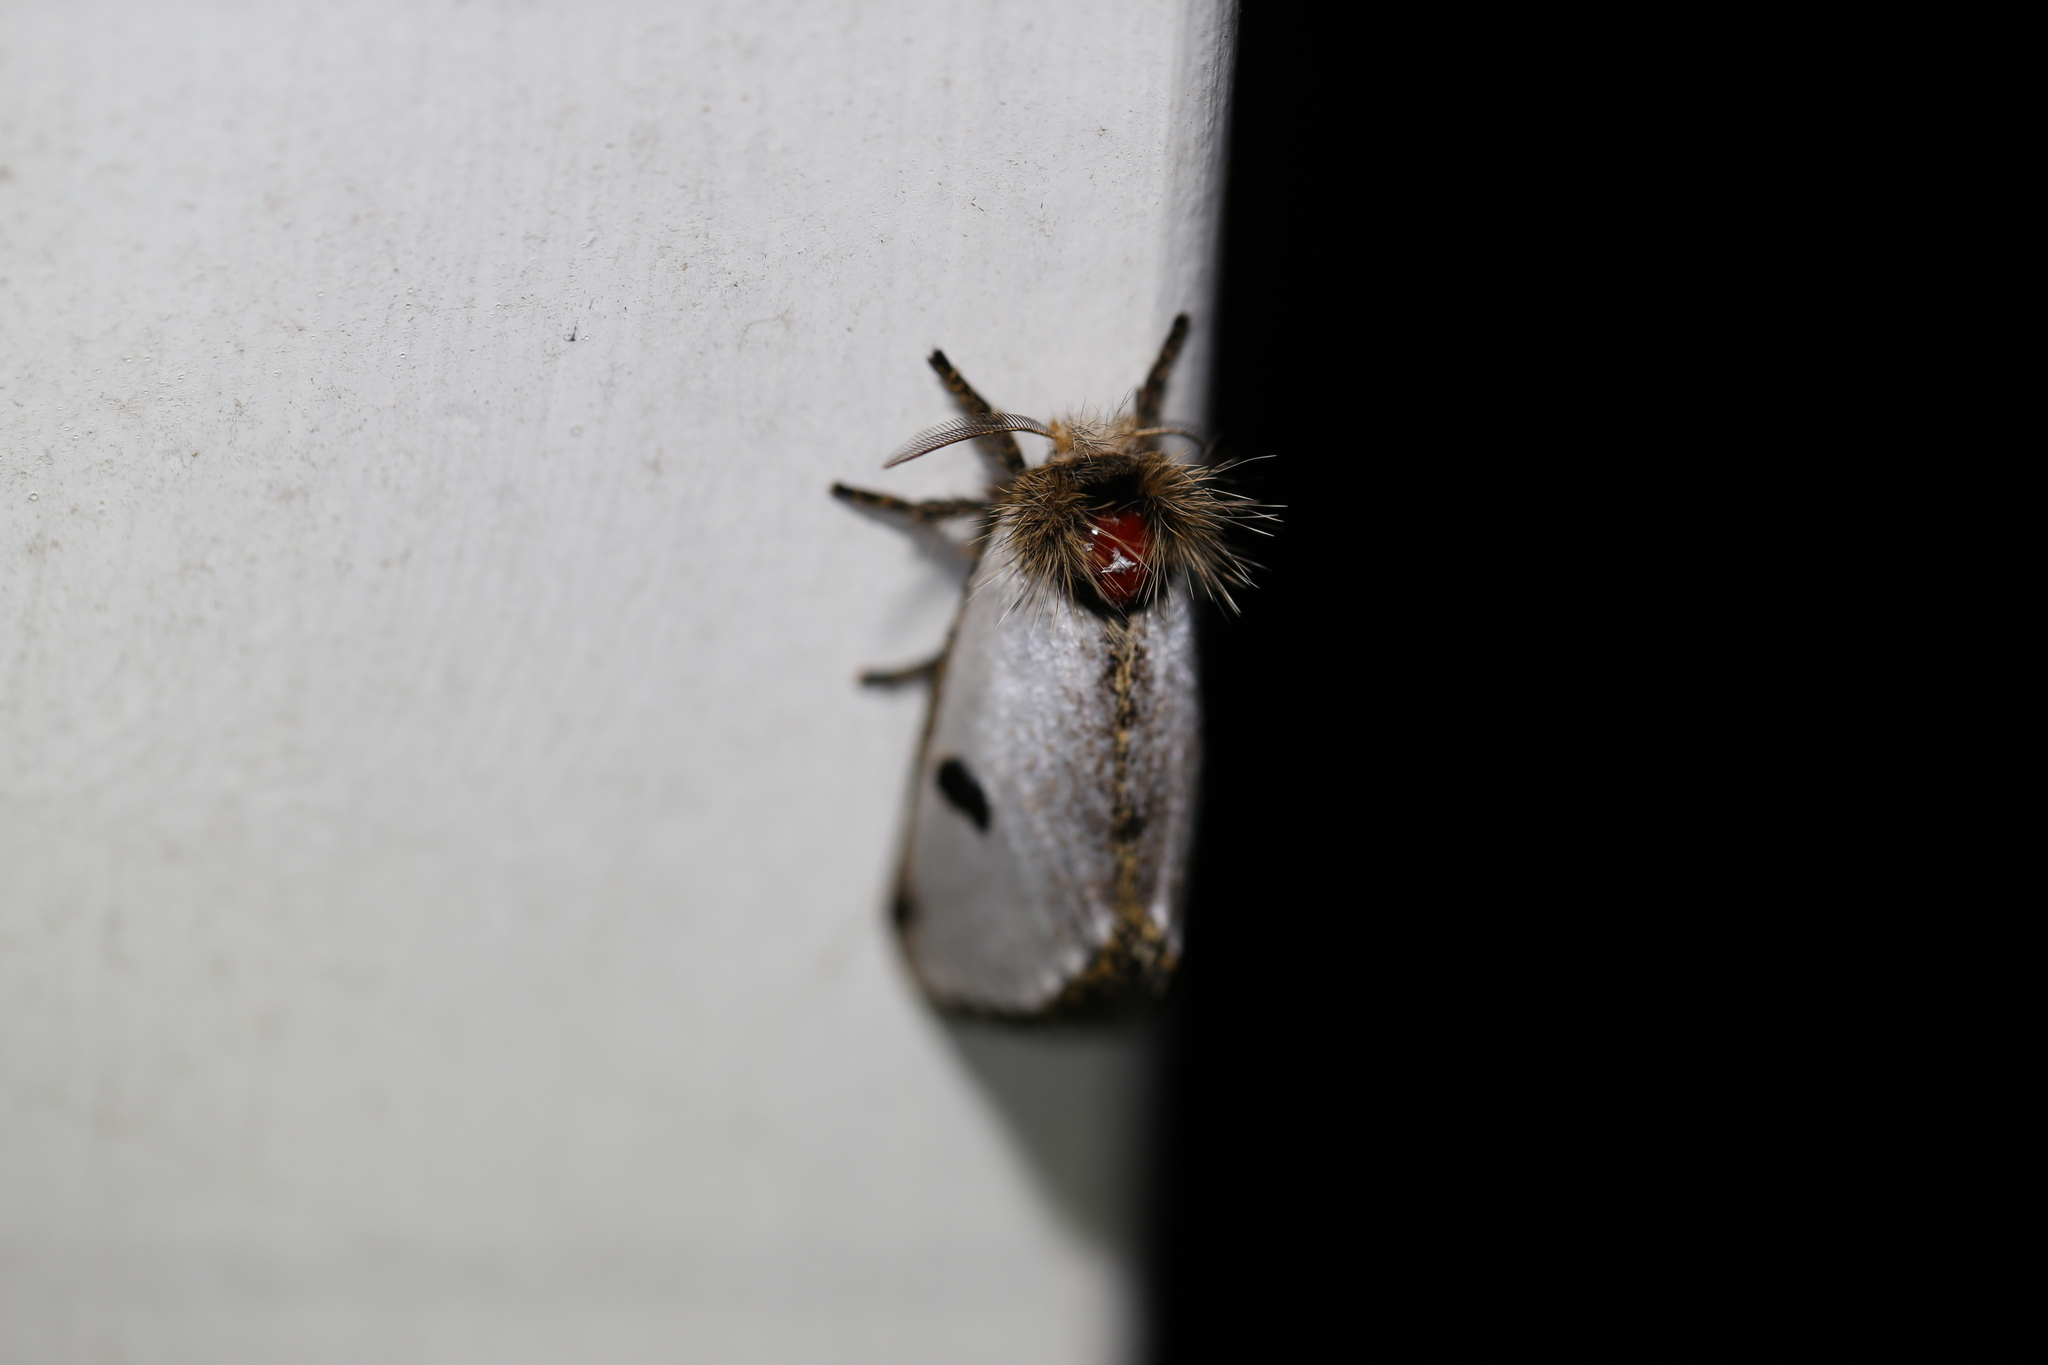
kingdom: Animalia
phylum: Arthropoda
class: Insecta
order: Lepidoptera
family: Notodontidae
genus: Epicoma
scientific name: Epicoma melanospila
